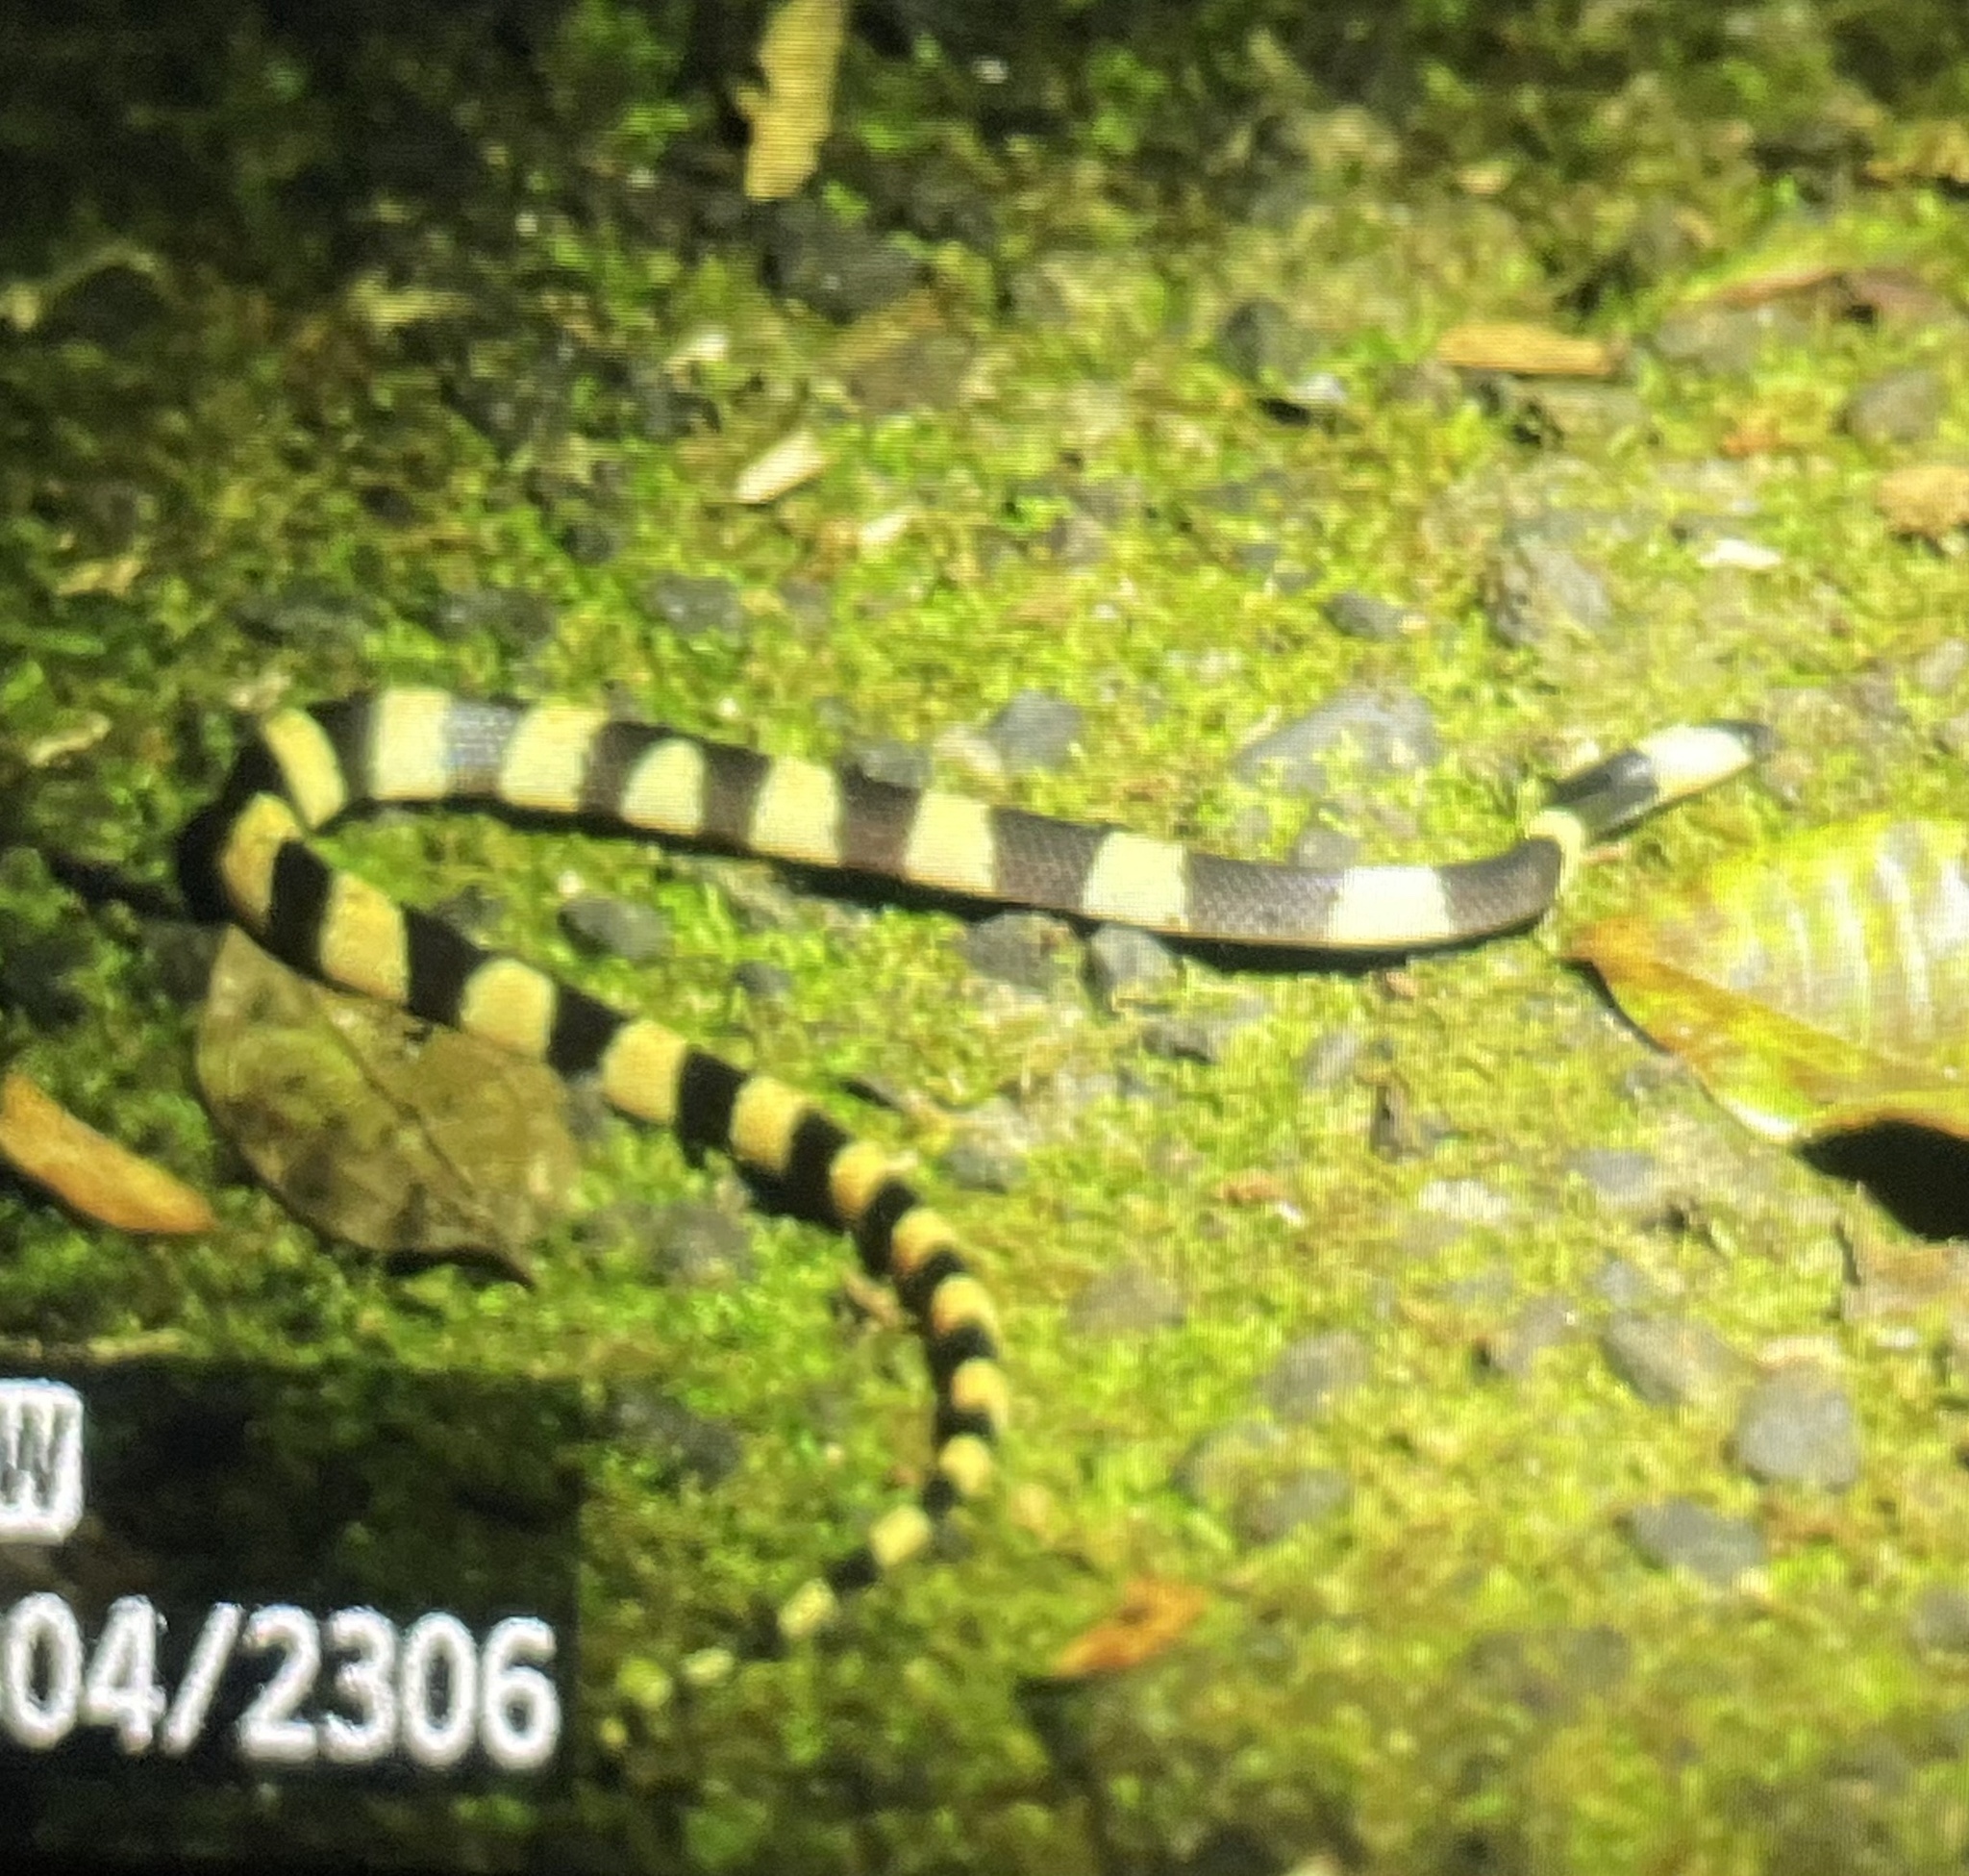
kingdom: Animalia
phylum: Chordata
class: Squamata
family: Colubridae
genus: Oxyrhopus
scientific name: Oxyrhopus petolarius
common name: Forest flame snake
